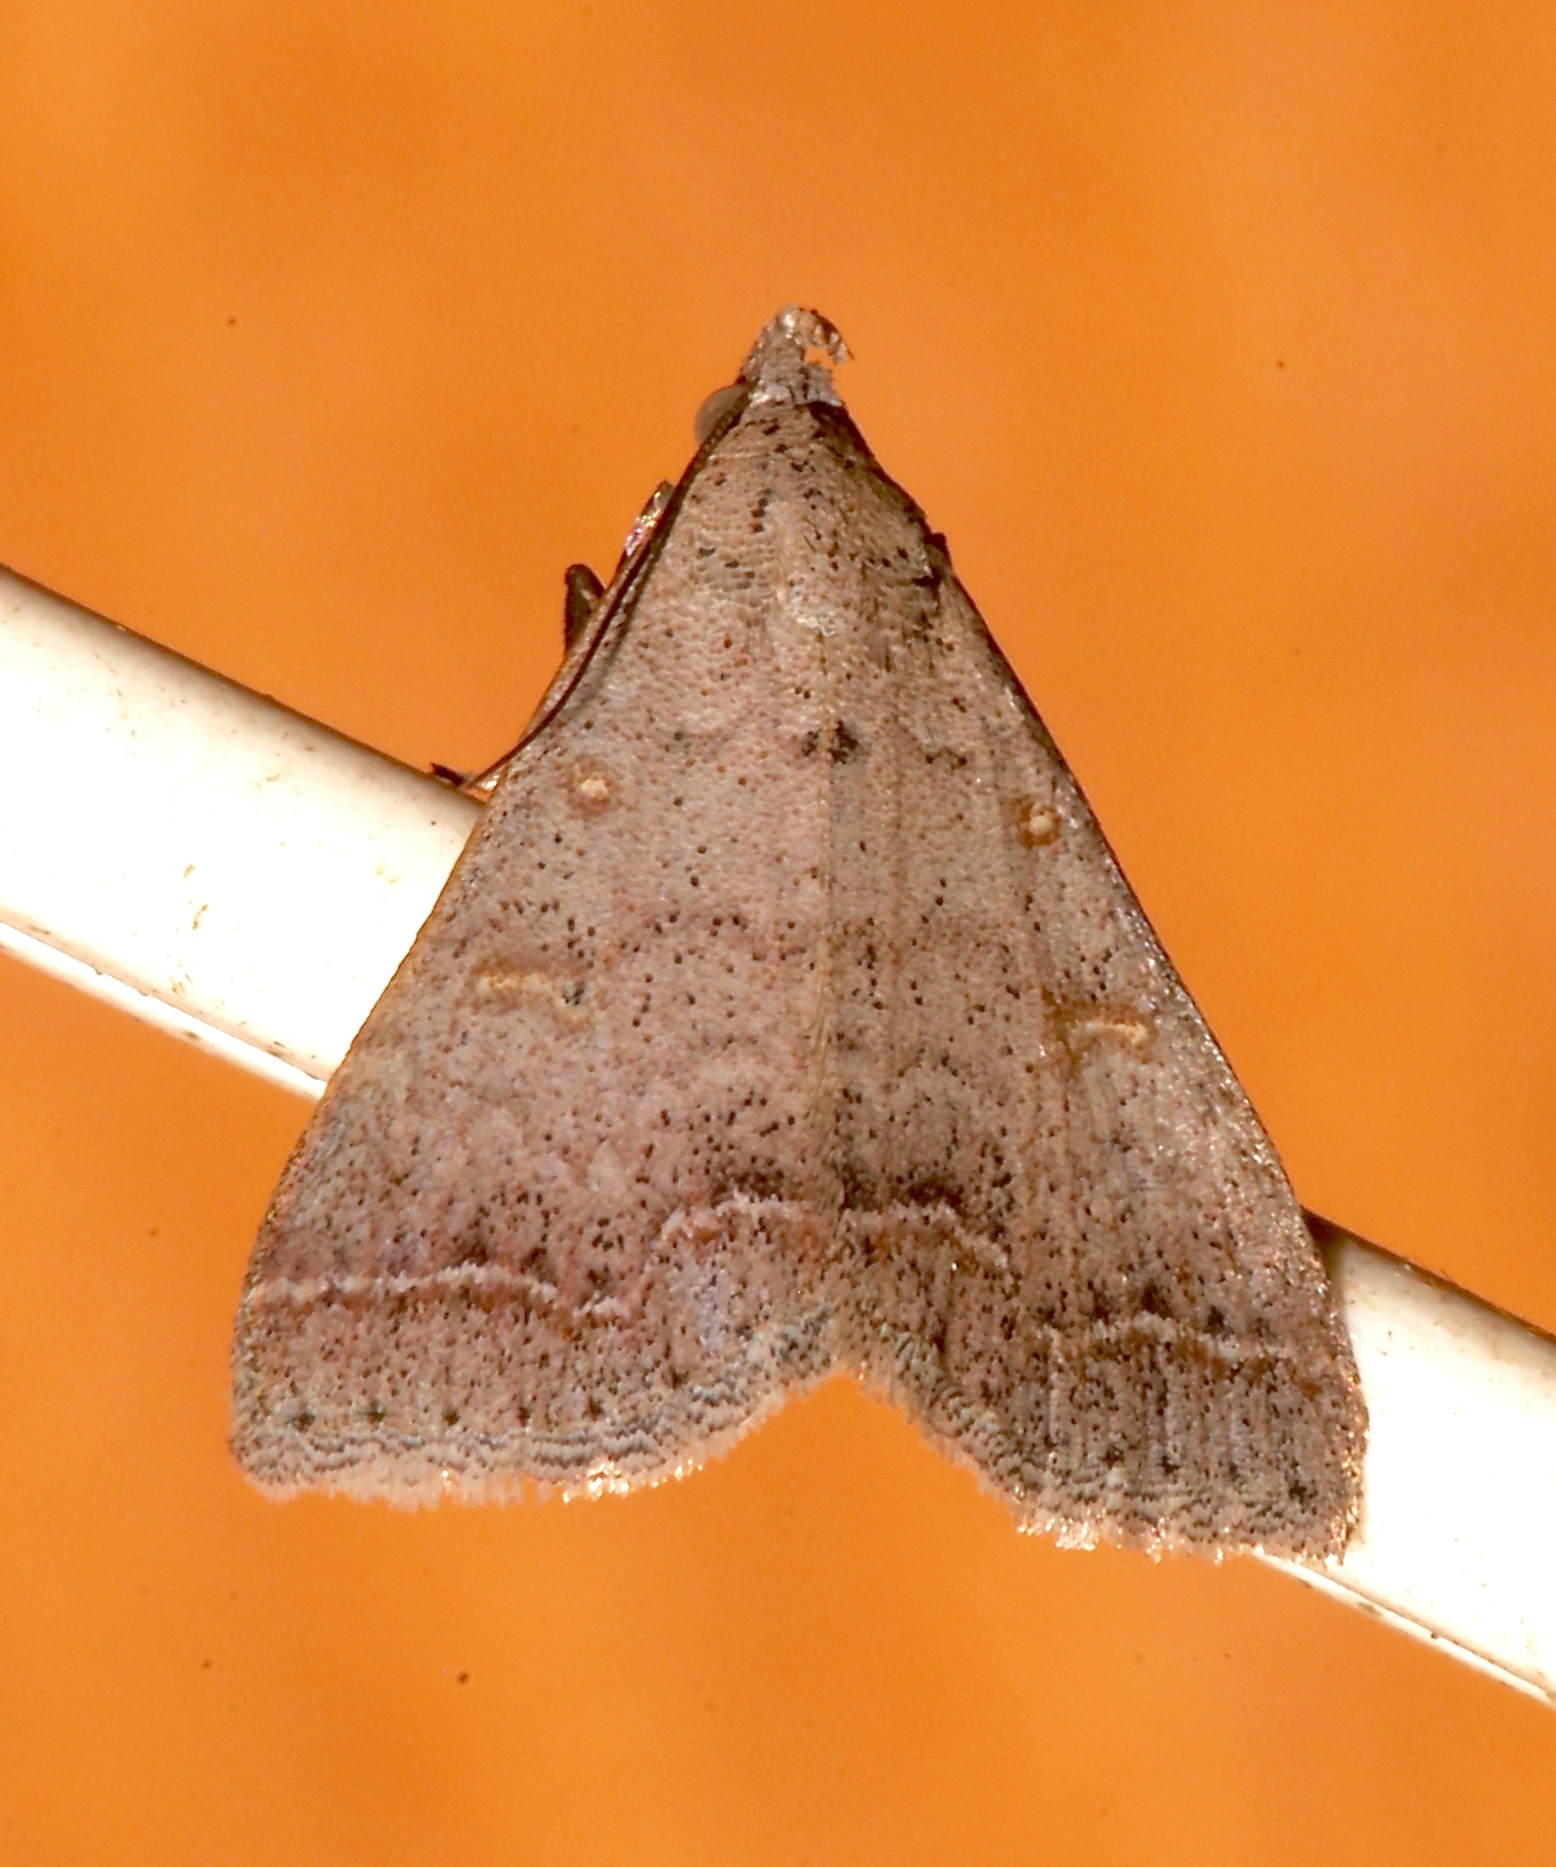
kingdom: Animalia
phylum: Arthropoda
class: Insecta
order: Lepidoptera
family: Erebidae
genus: Bleptina
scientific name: Bleptina caradrinalis
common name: Bent-winged owlet
